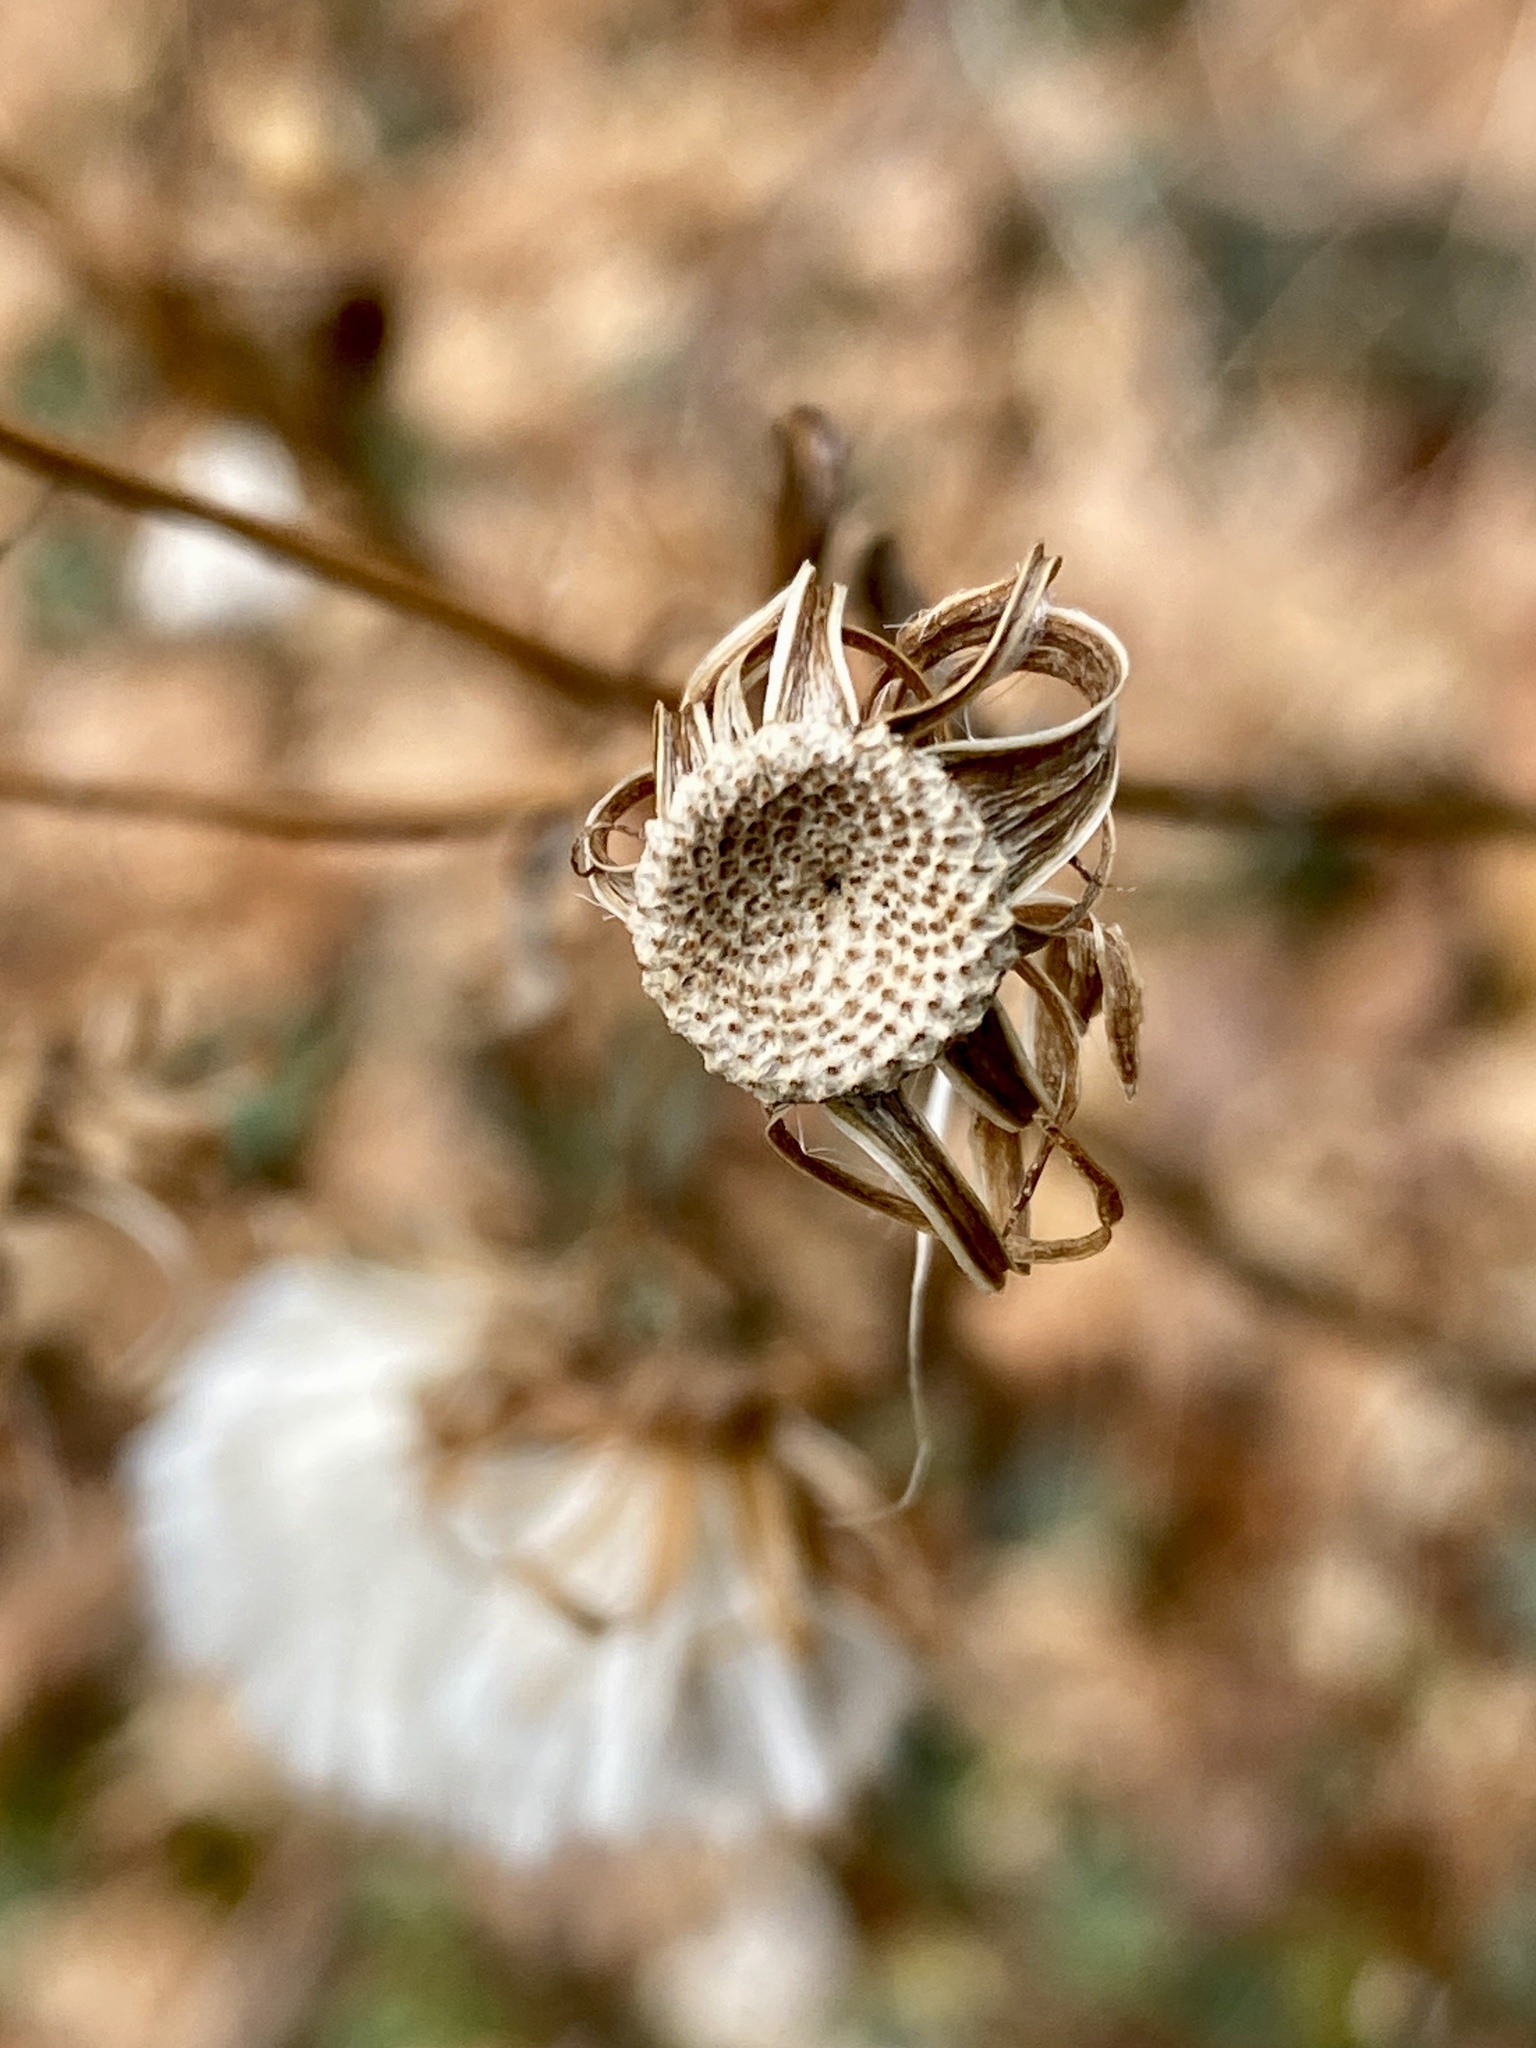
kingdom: Plantae
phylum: Tracheophyta
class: Magnoliopsida
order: Asterales
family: Asteraceae
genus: Erechtites
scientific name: Erechtites hieraciifolius
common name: American burnweed
